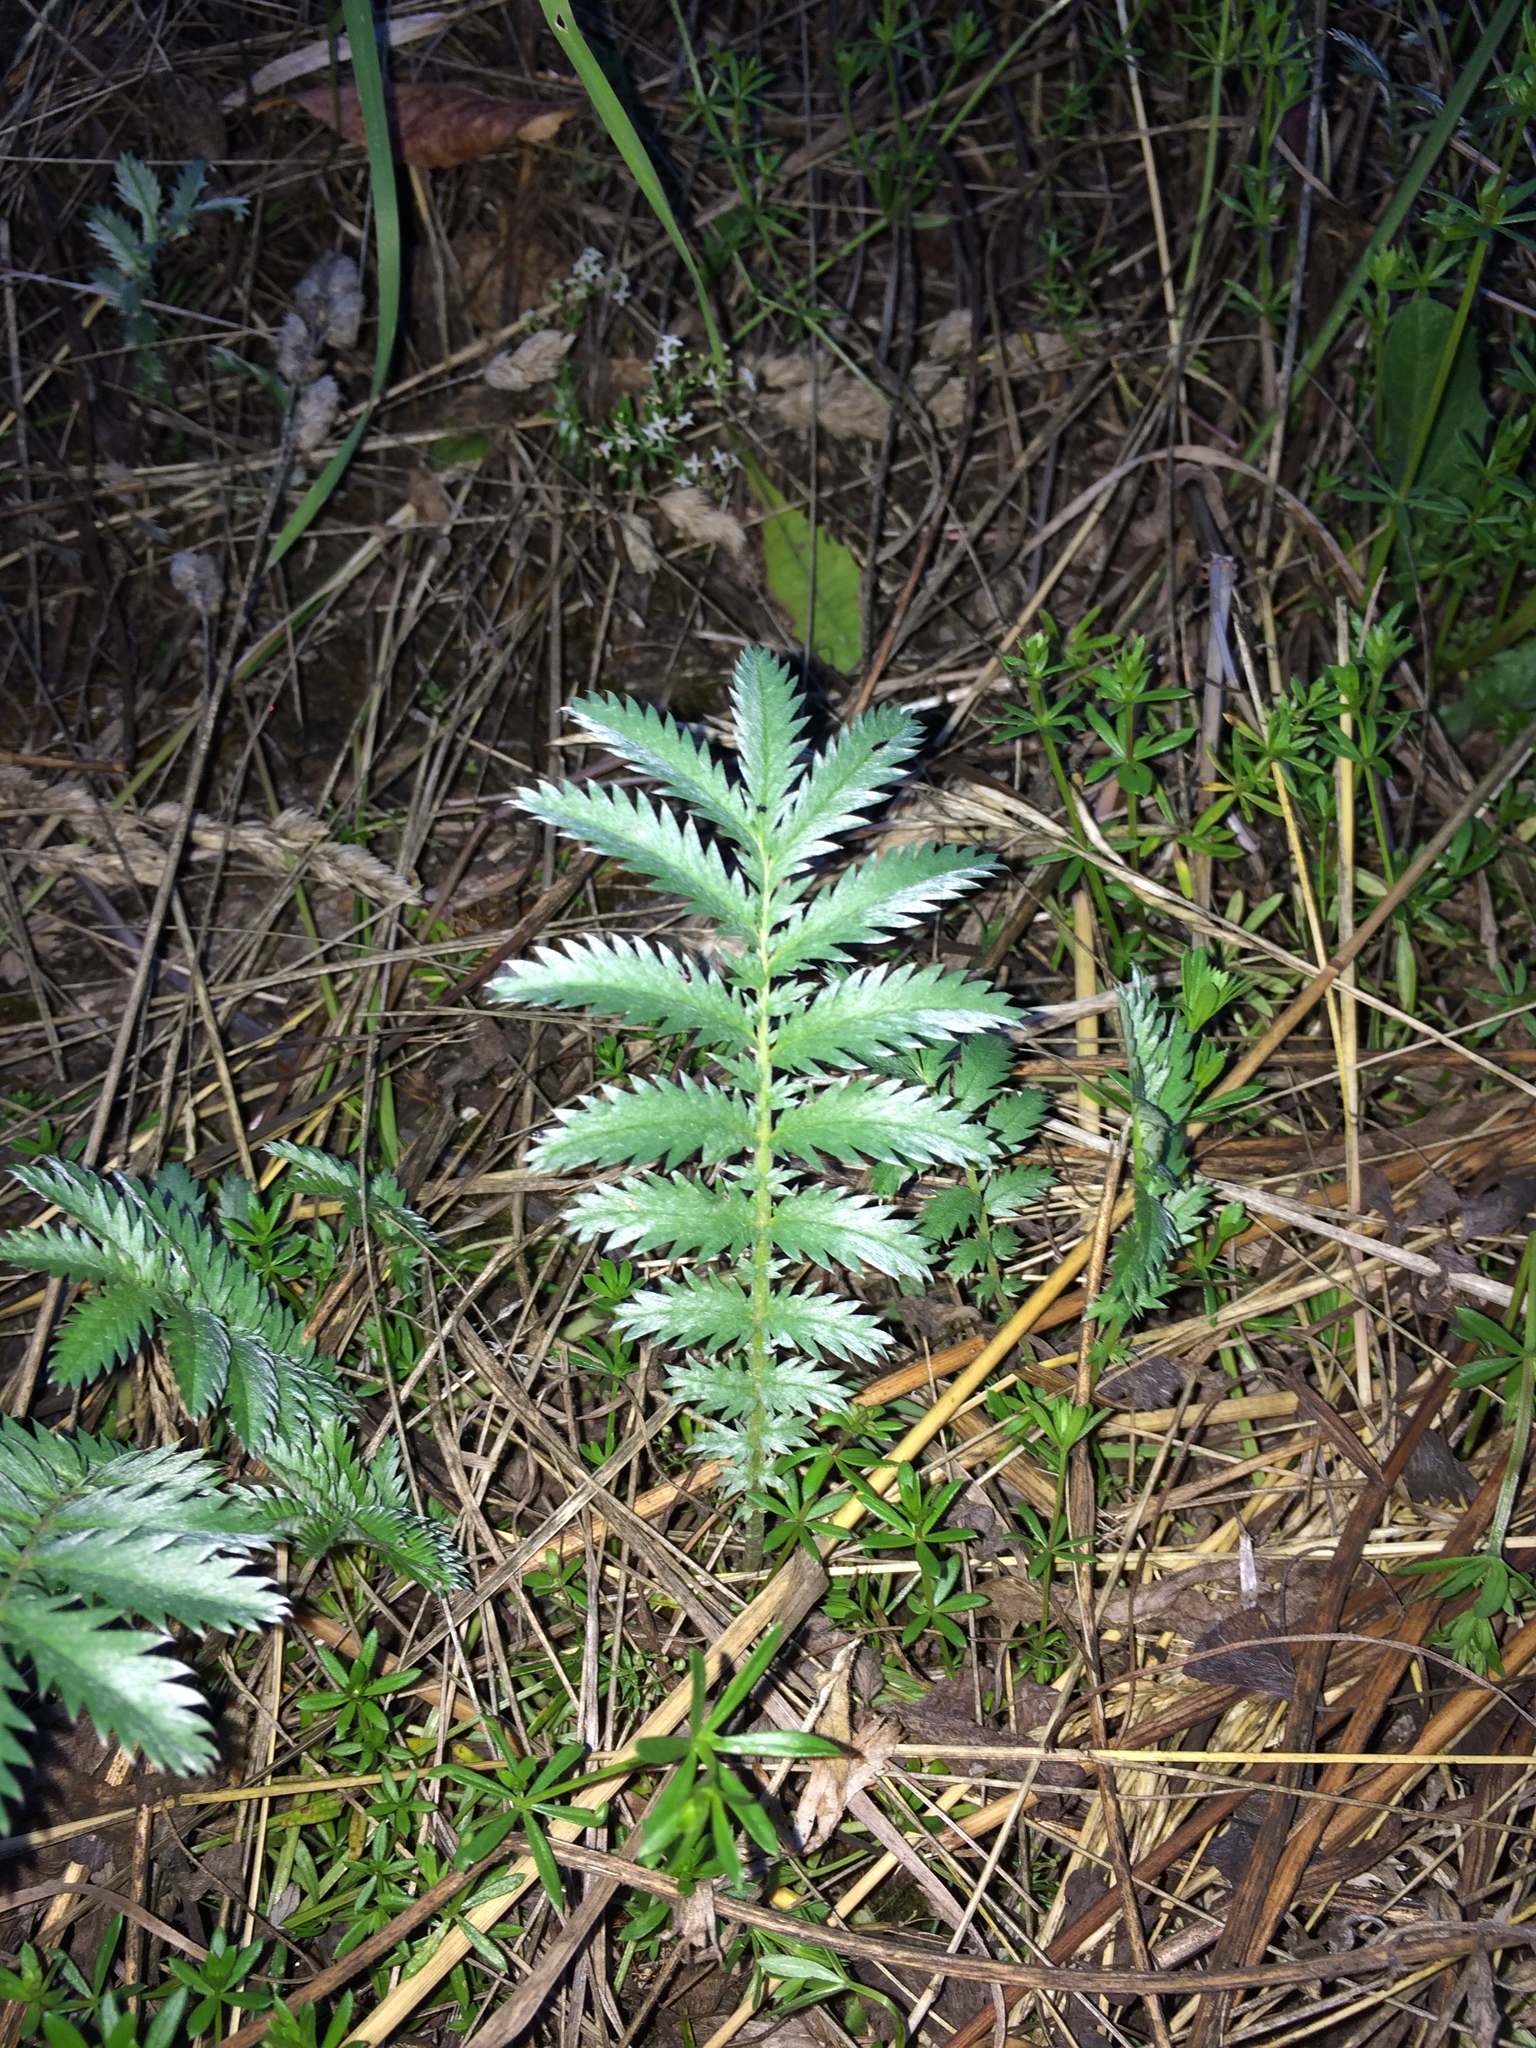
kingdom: Plantae
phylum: Tracheophyta
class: Magnoliopsida
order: Rosales
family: Rosaceae
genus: Argentina
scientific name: Argentina anserina
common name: Common silverweed
